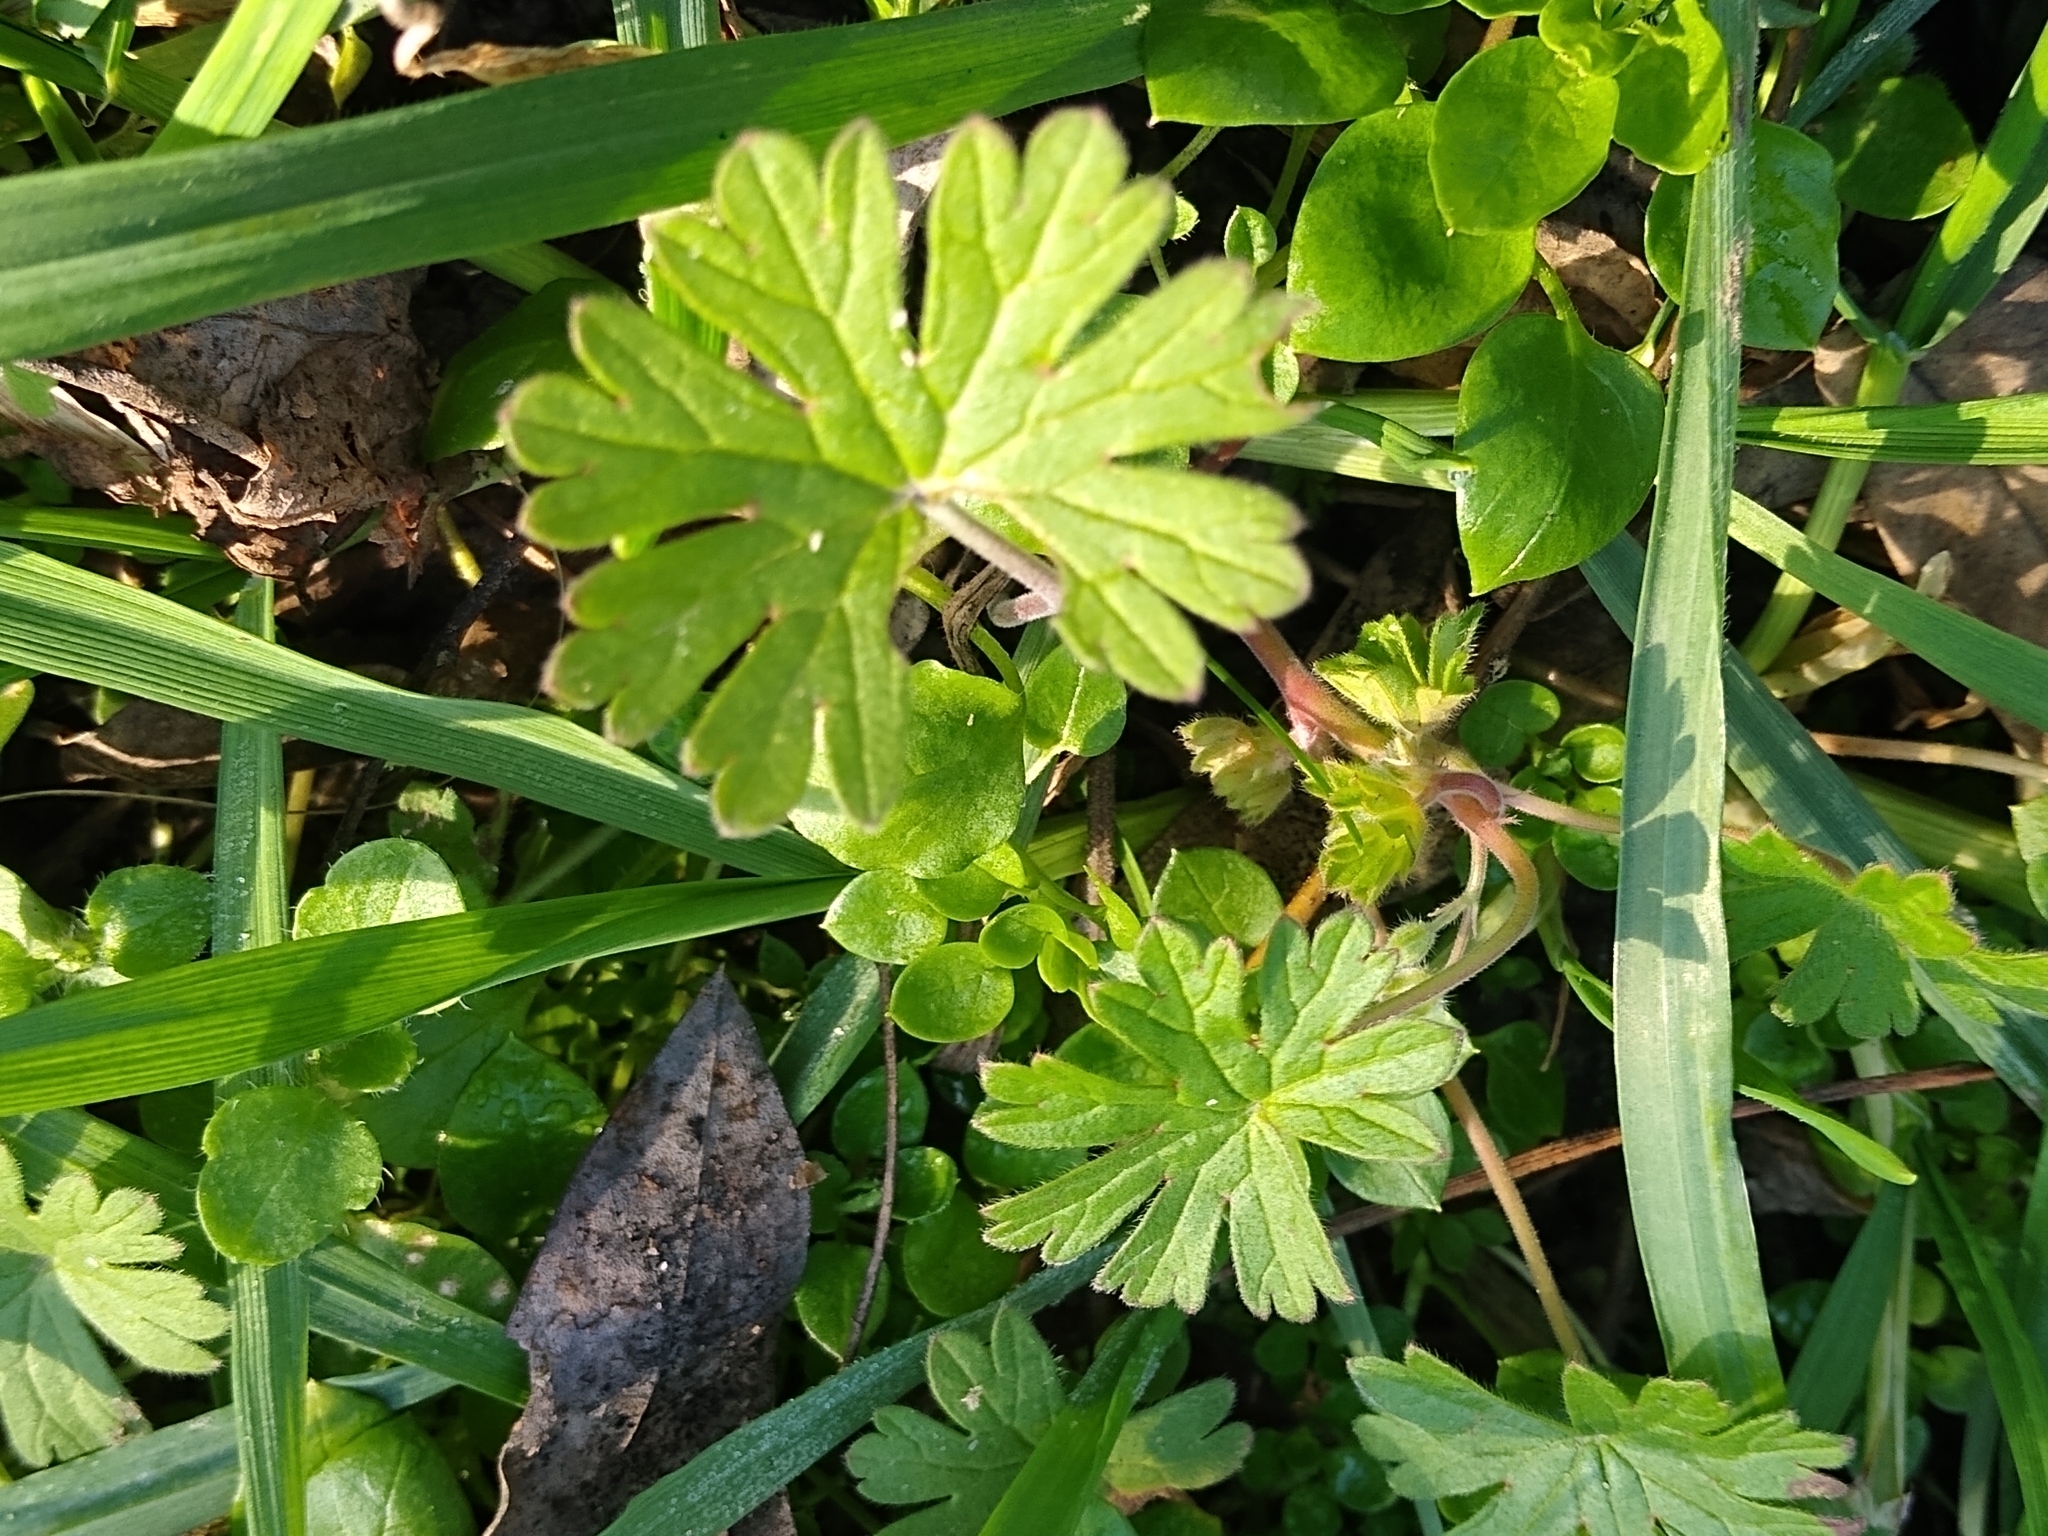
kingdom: Plantae
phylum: Tracheophyta
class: Magnoliopsida
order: Geraniales
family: Geraniaceae
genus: Geranium
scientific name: Geranium pusillum
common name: Small geranium
